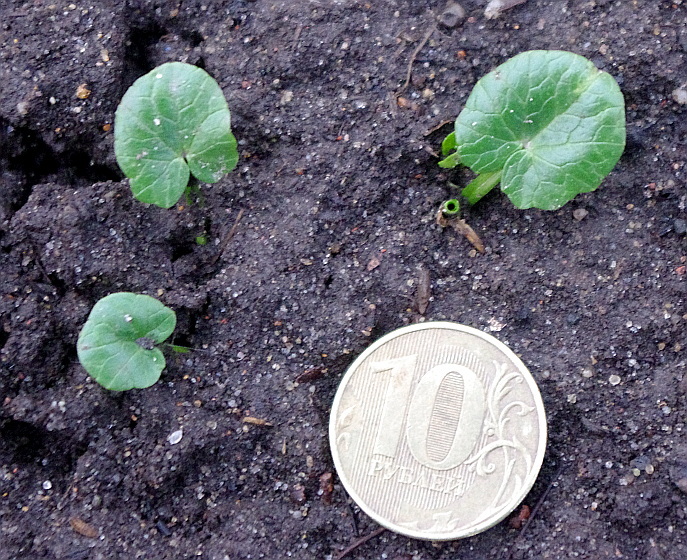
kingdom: Plantae
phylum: Tracheophyta
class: Magnoliopsida
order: Ranunculales
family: Ranunculaceae
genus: Ficaria
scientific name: Ficaria verna
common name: Lesser celandine
